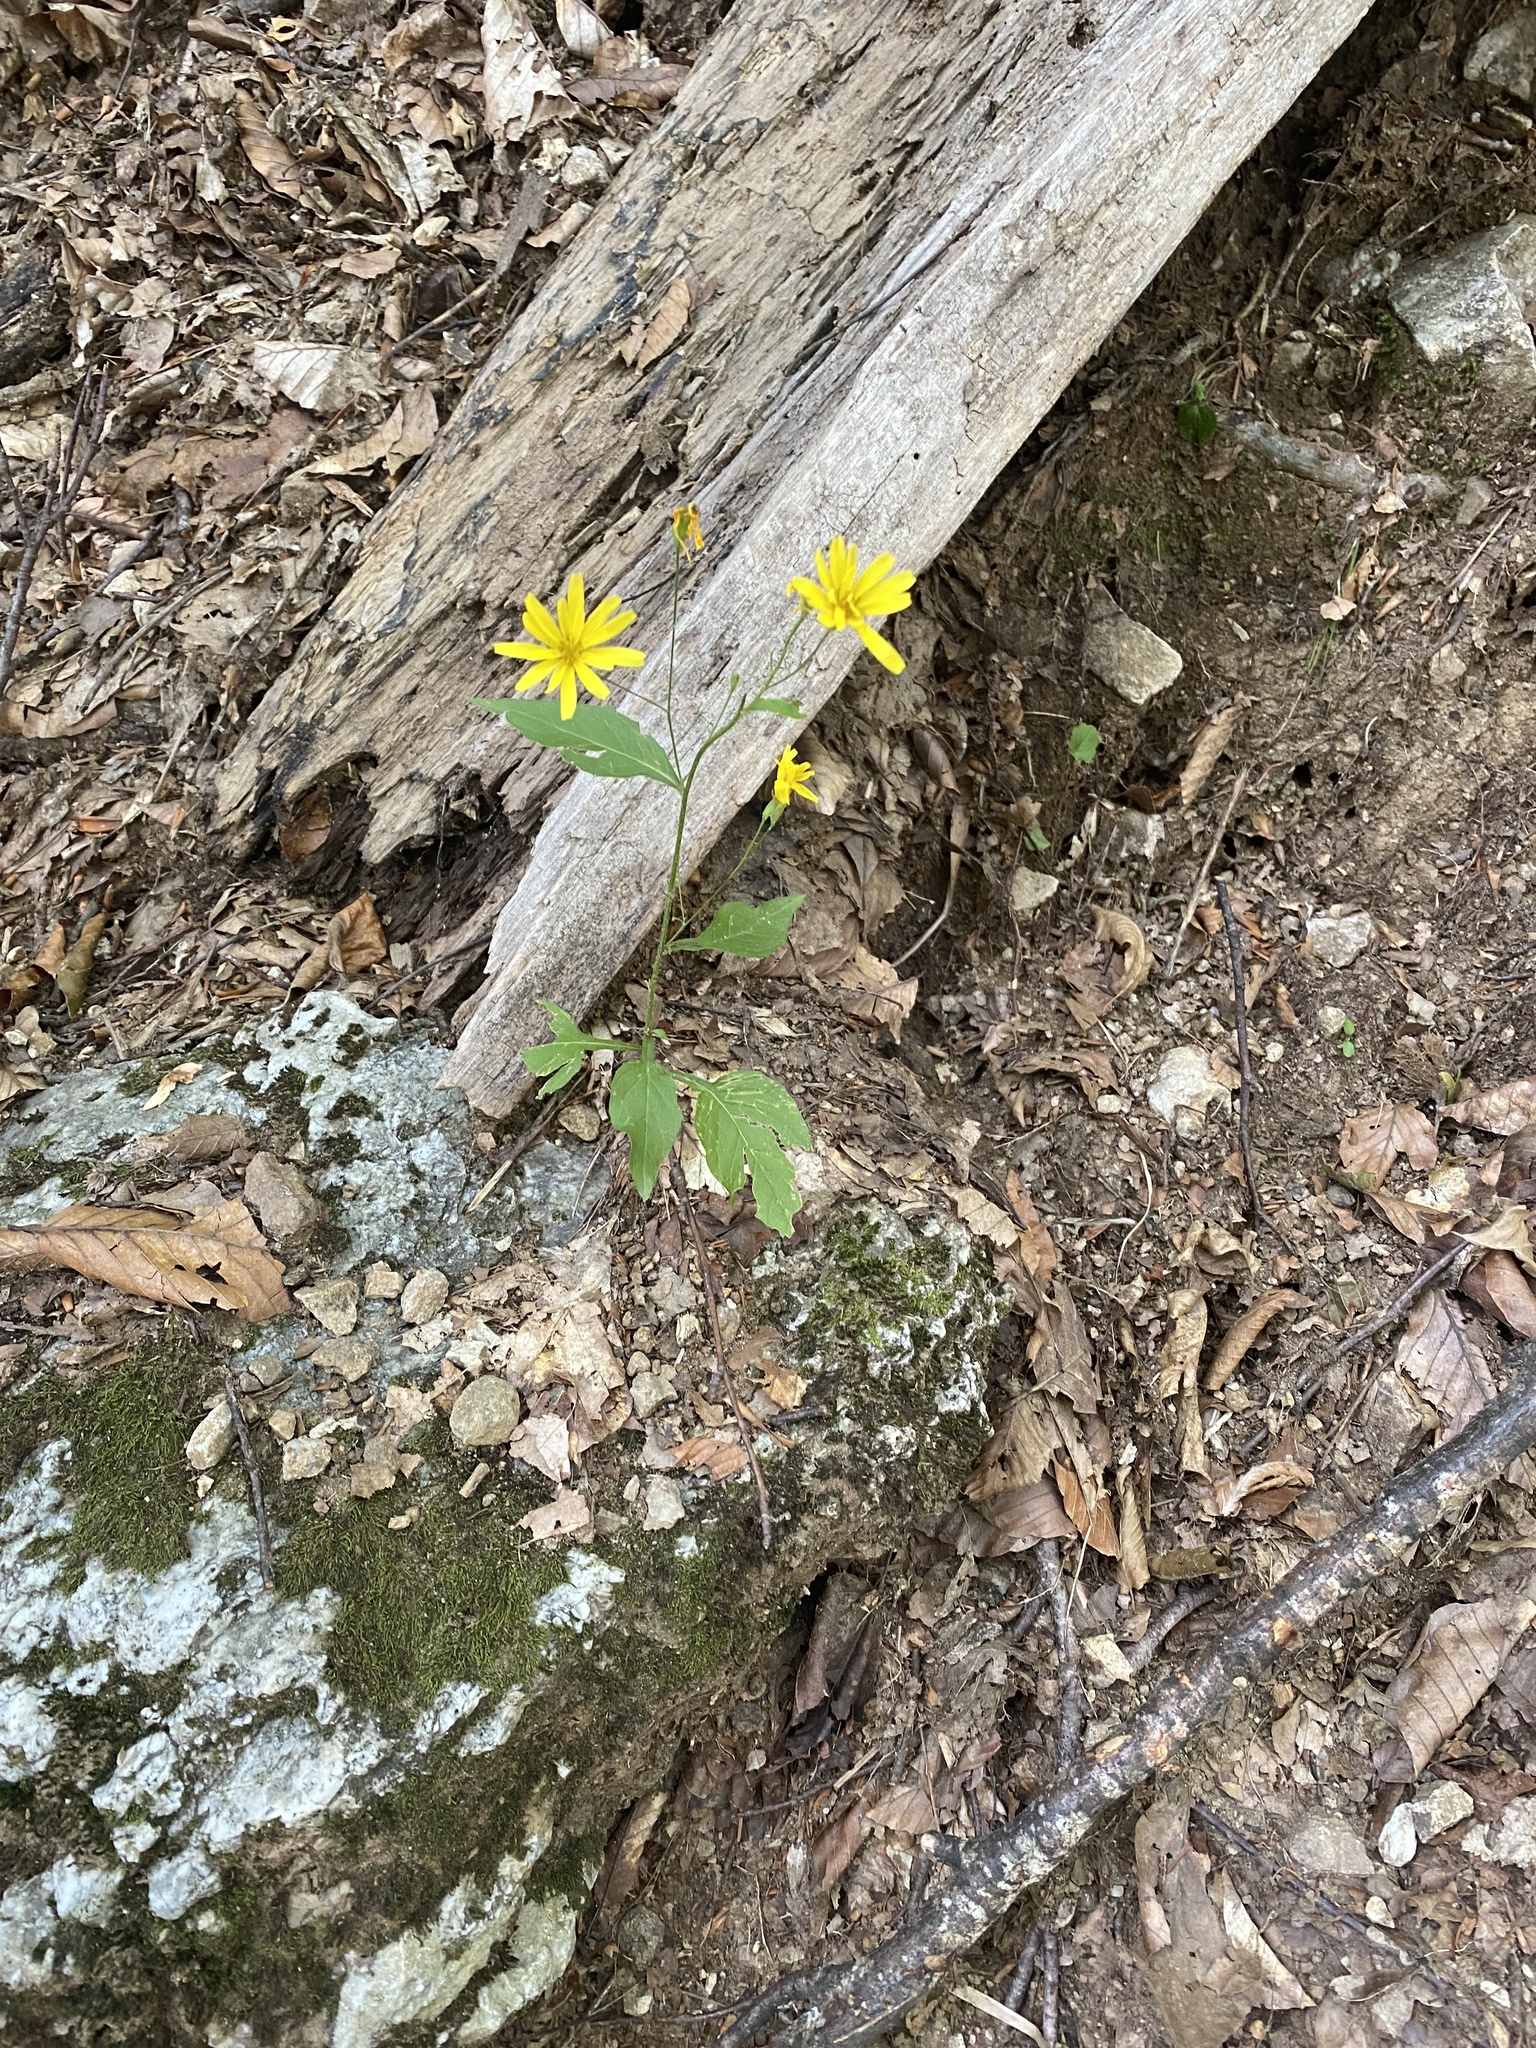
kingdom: Plantae
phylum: Tracheophyta
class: Magnoliopsida
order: Asterales
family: Asteraceae
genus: Lapsana
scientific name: Lapsana communis
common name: Nipplewort
